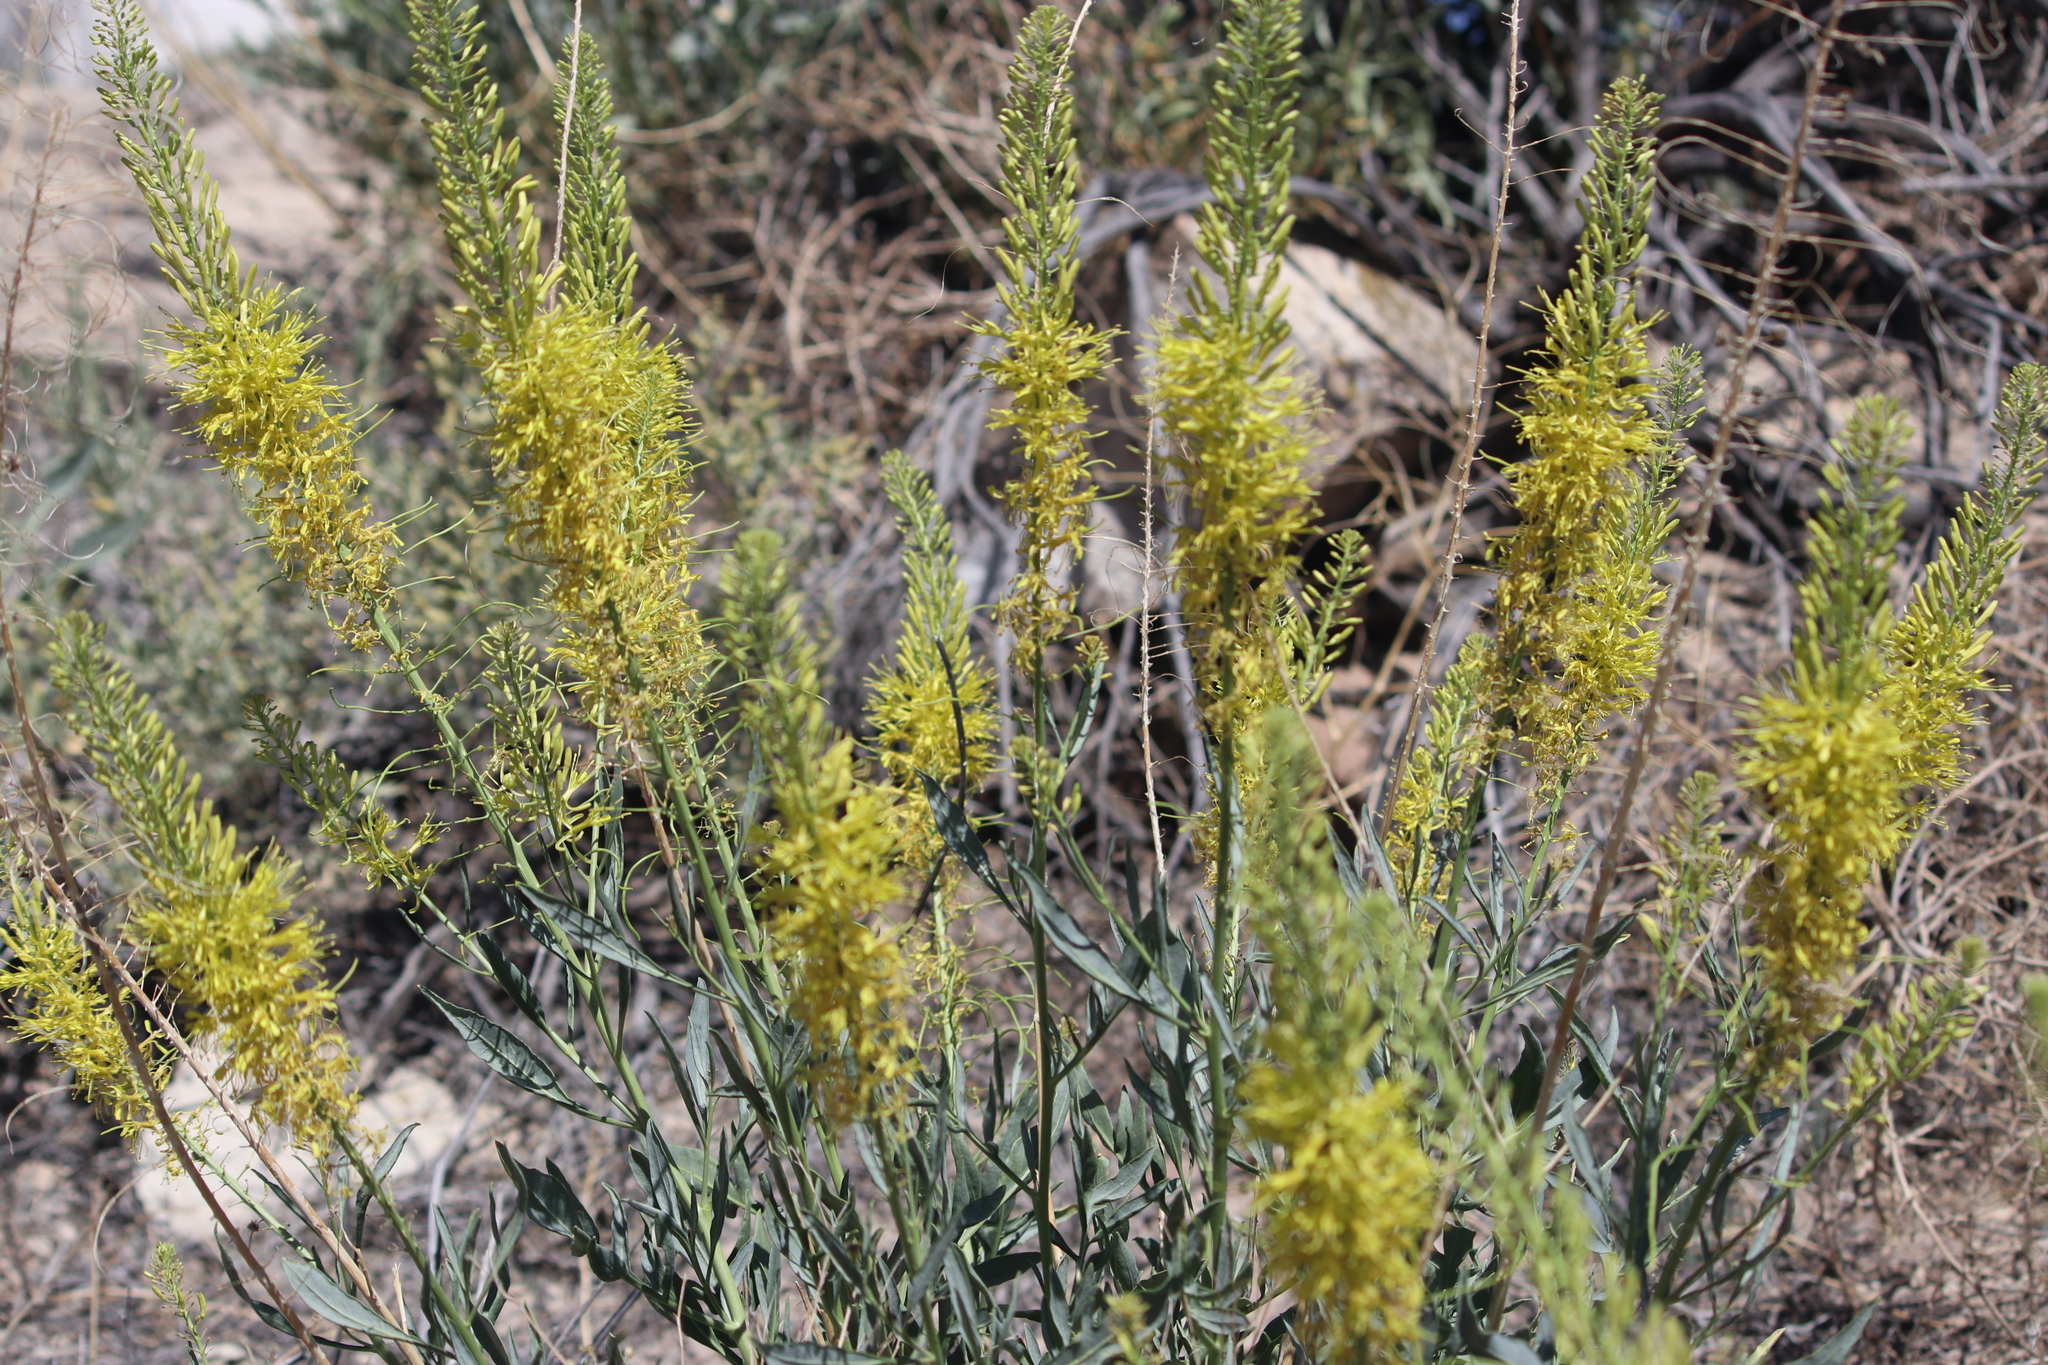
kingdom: Plantae
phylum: Tracheophyta
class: Magnoliopsida
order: Brassicales
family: Brassicaceae
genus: Stanleya
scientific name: Stanleya pinnata
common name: Prince's-plume
